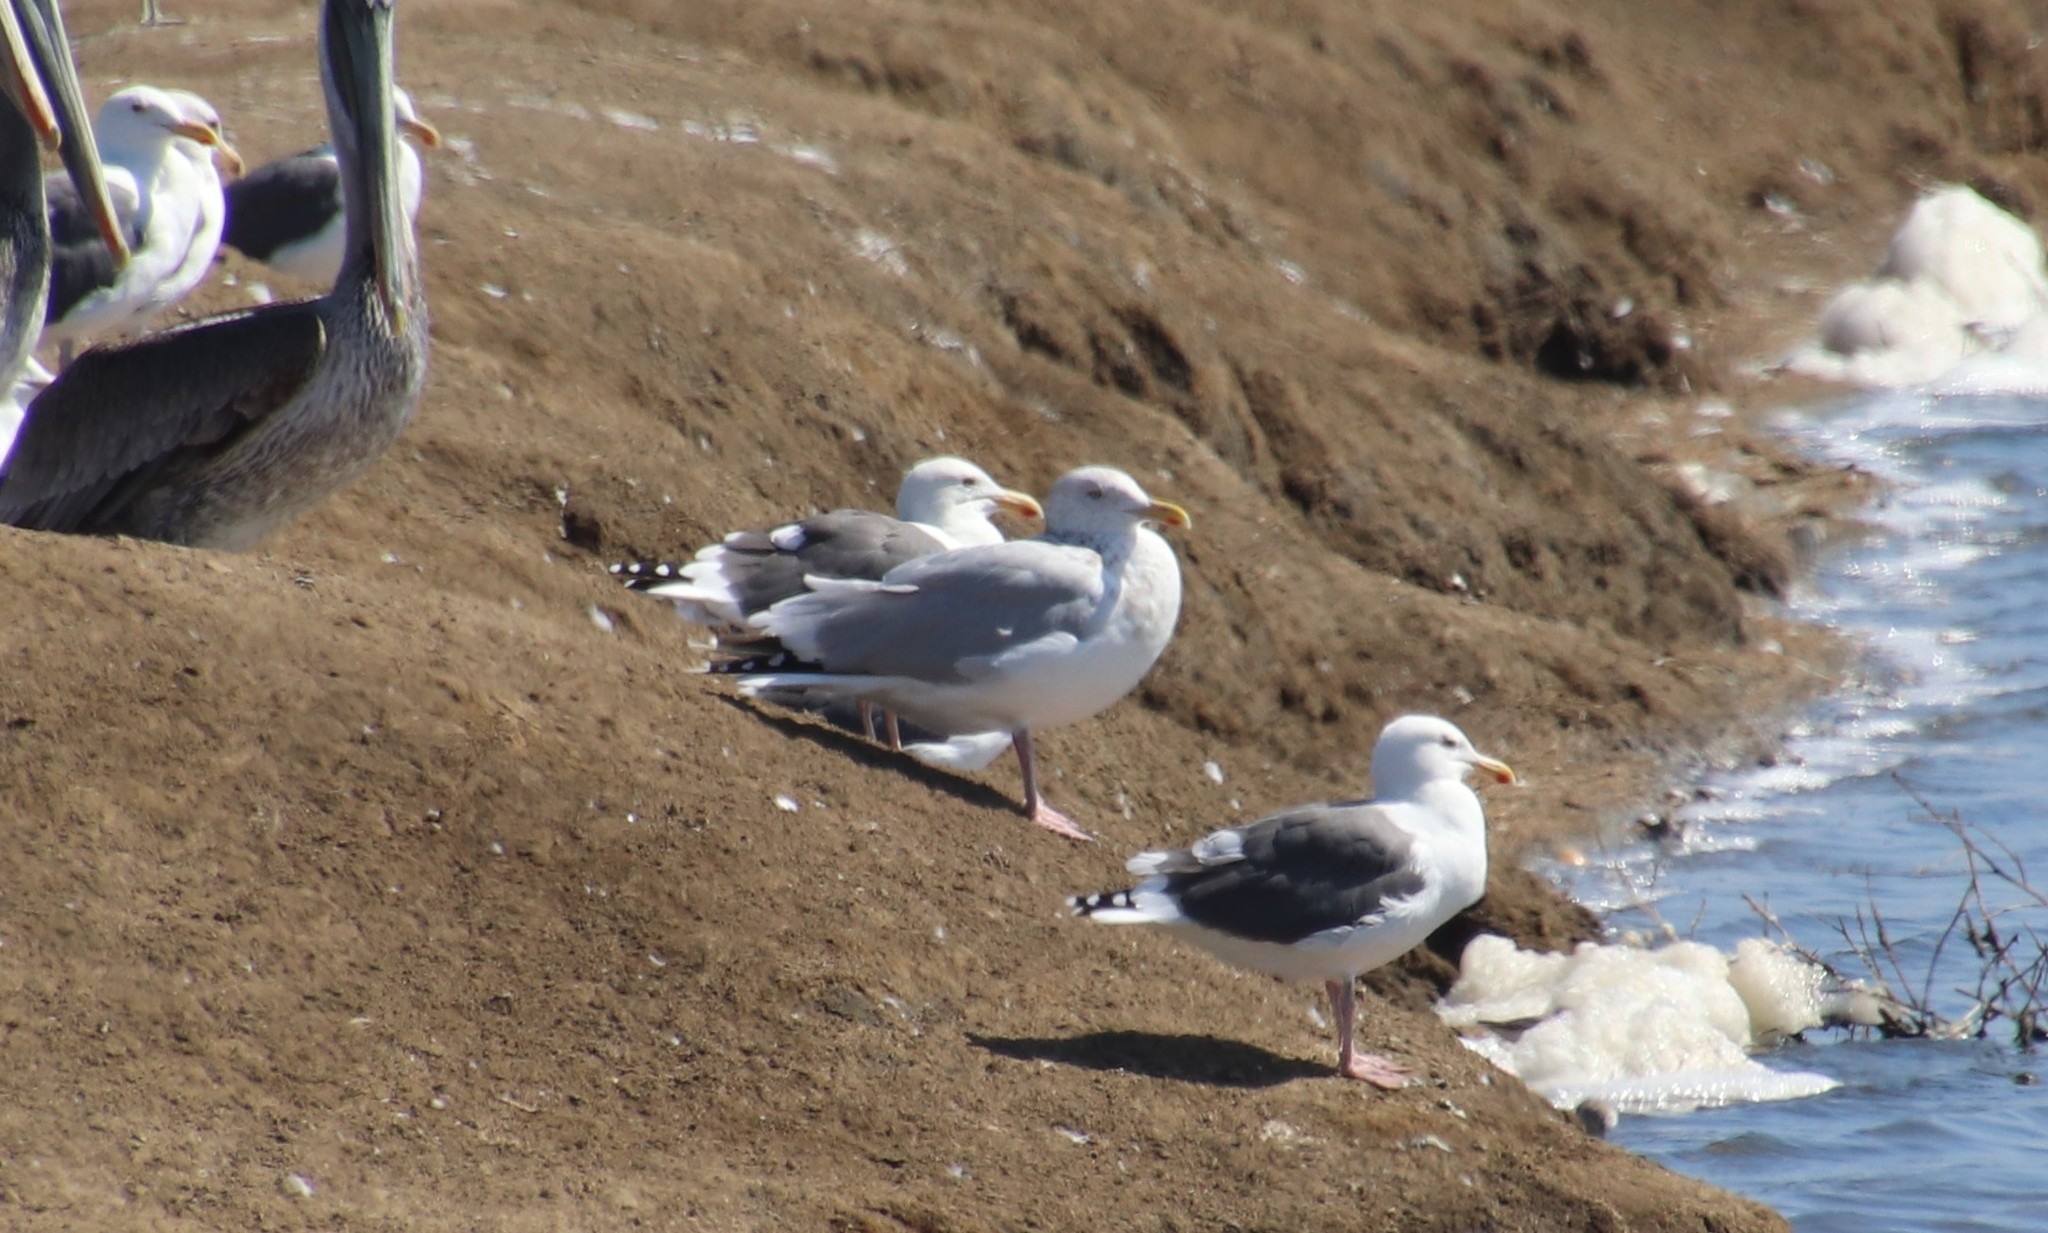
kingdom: Animalia
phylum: Chordata
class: Aves
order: Charadriiformes
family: Laridae
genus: Larus
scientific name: Larus argentatus
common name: Herring gull
